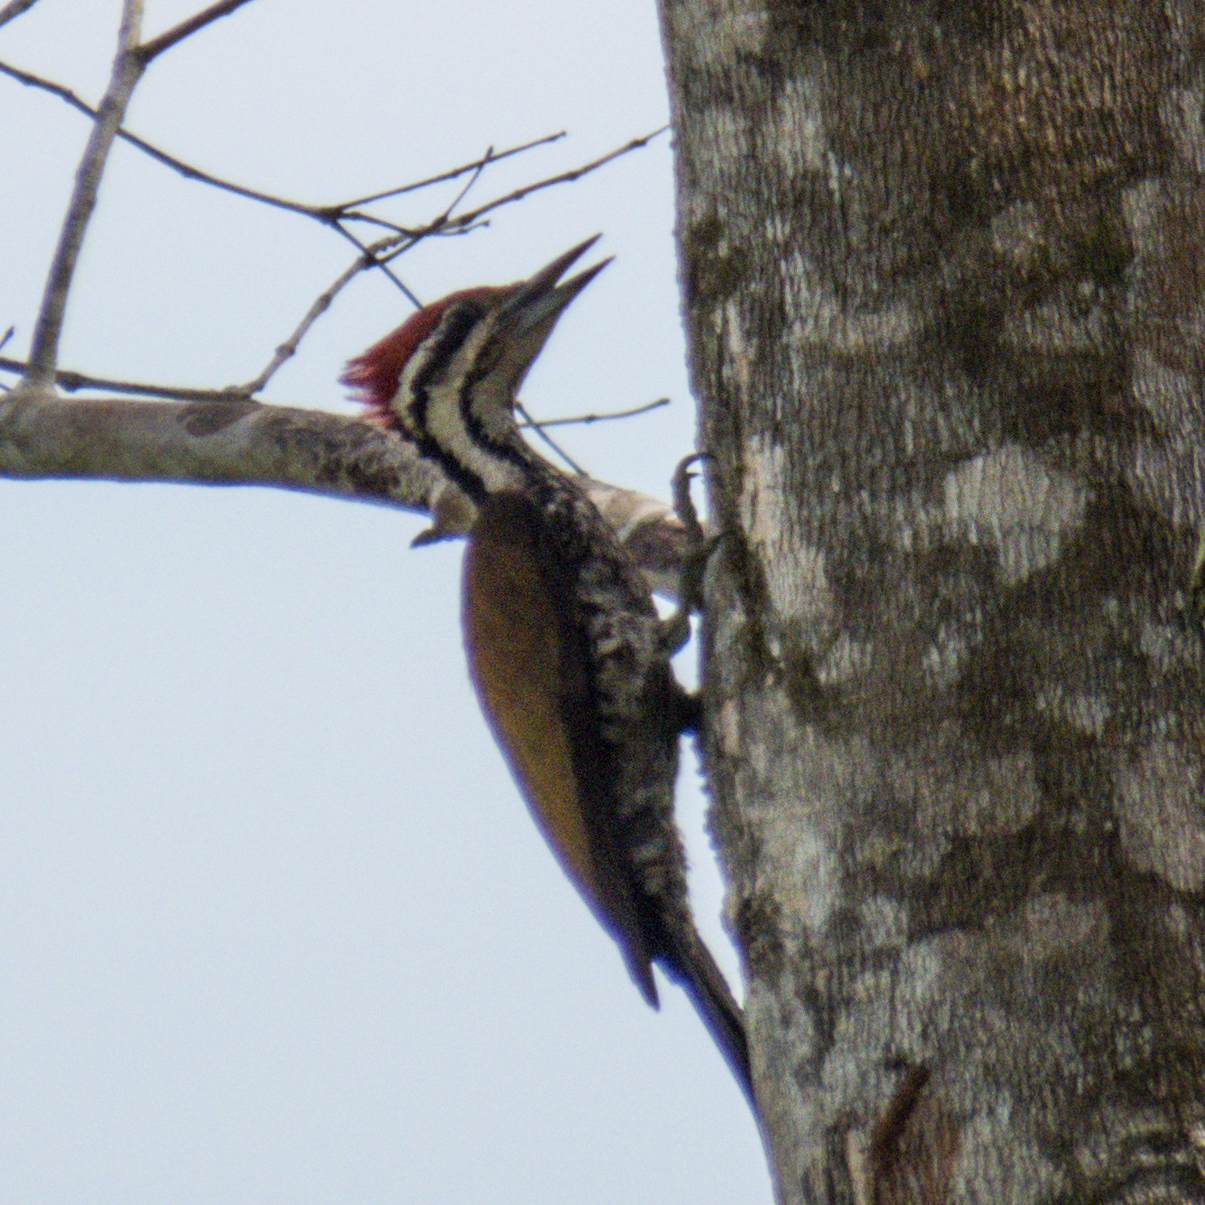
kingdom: Animalia
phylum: Chordata
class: Aves
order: Piciformes
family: Picidae
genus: Dinopium
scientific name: Dinopium javanense
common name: Common flameback
